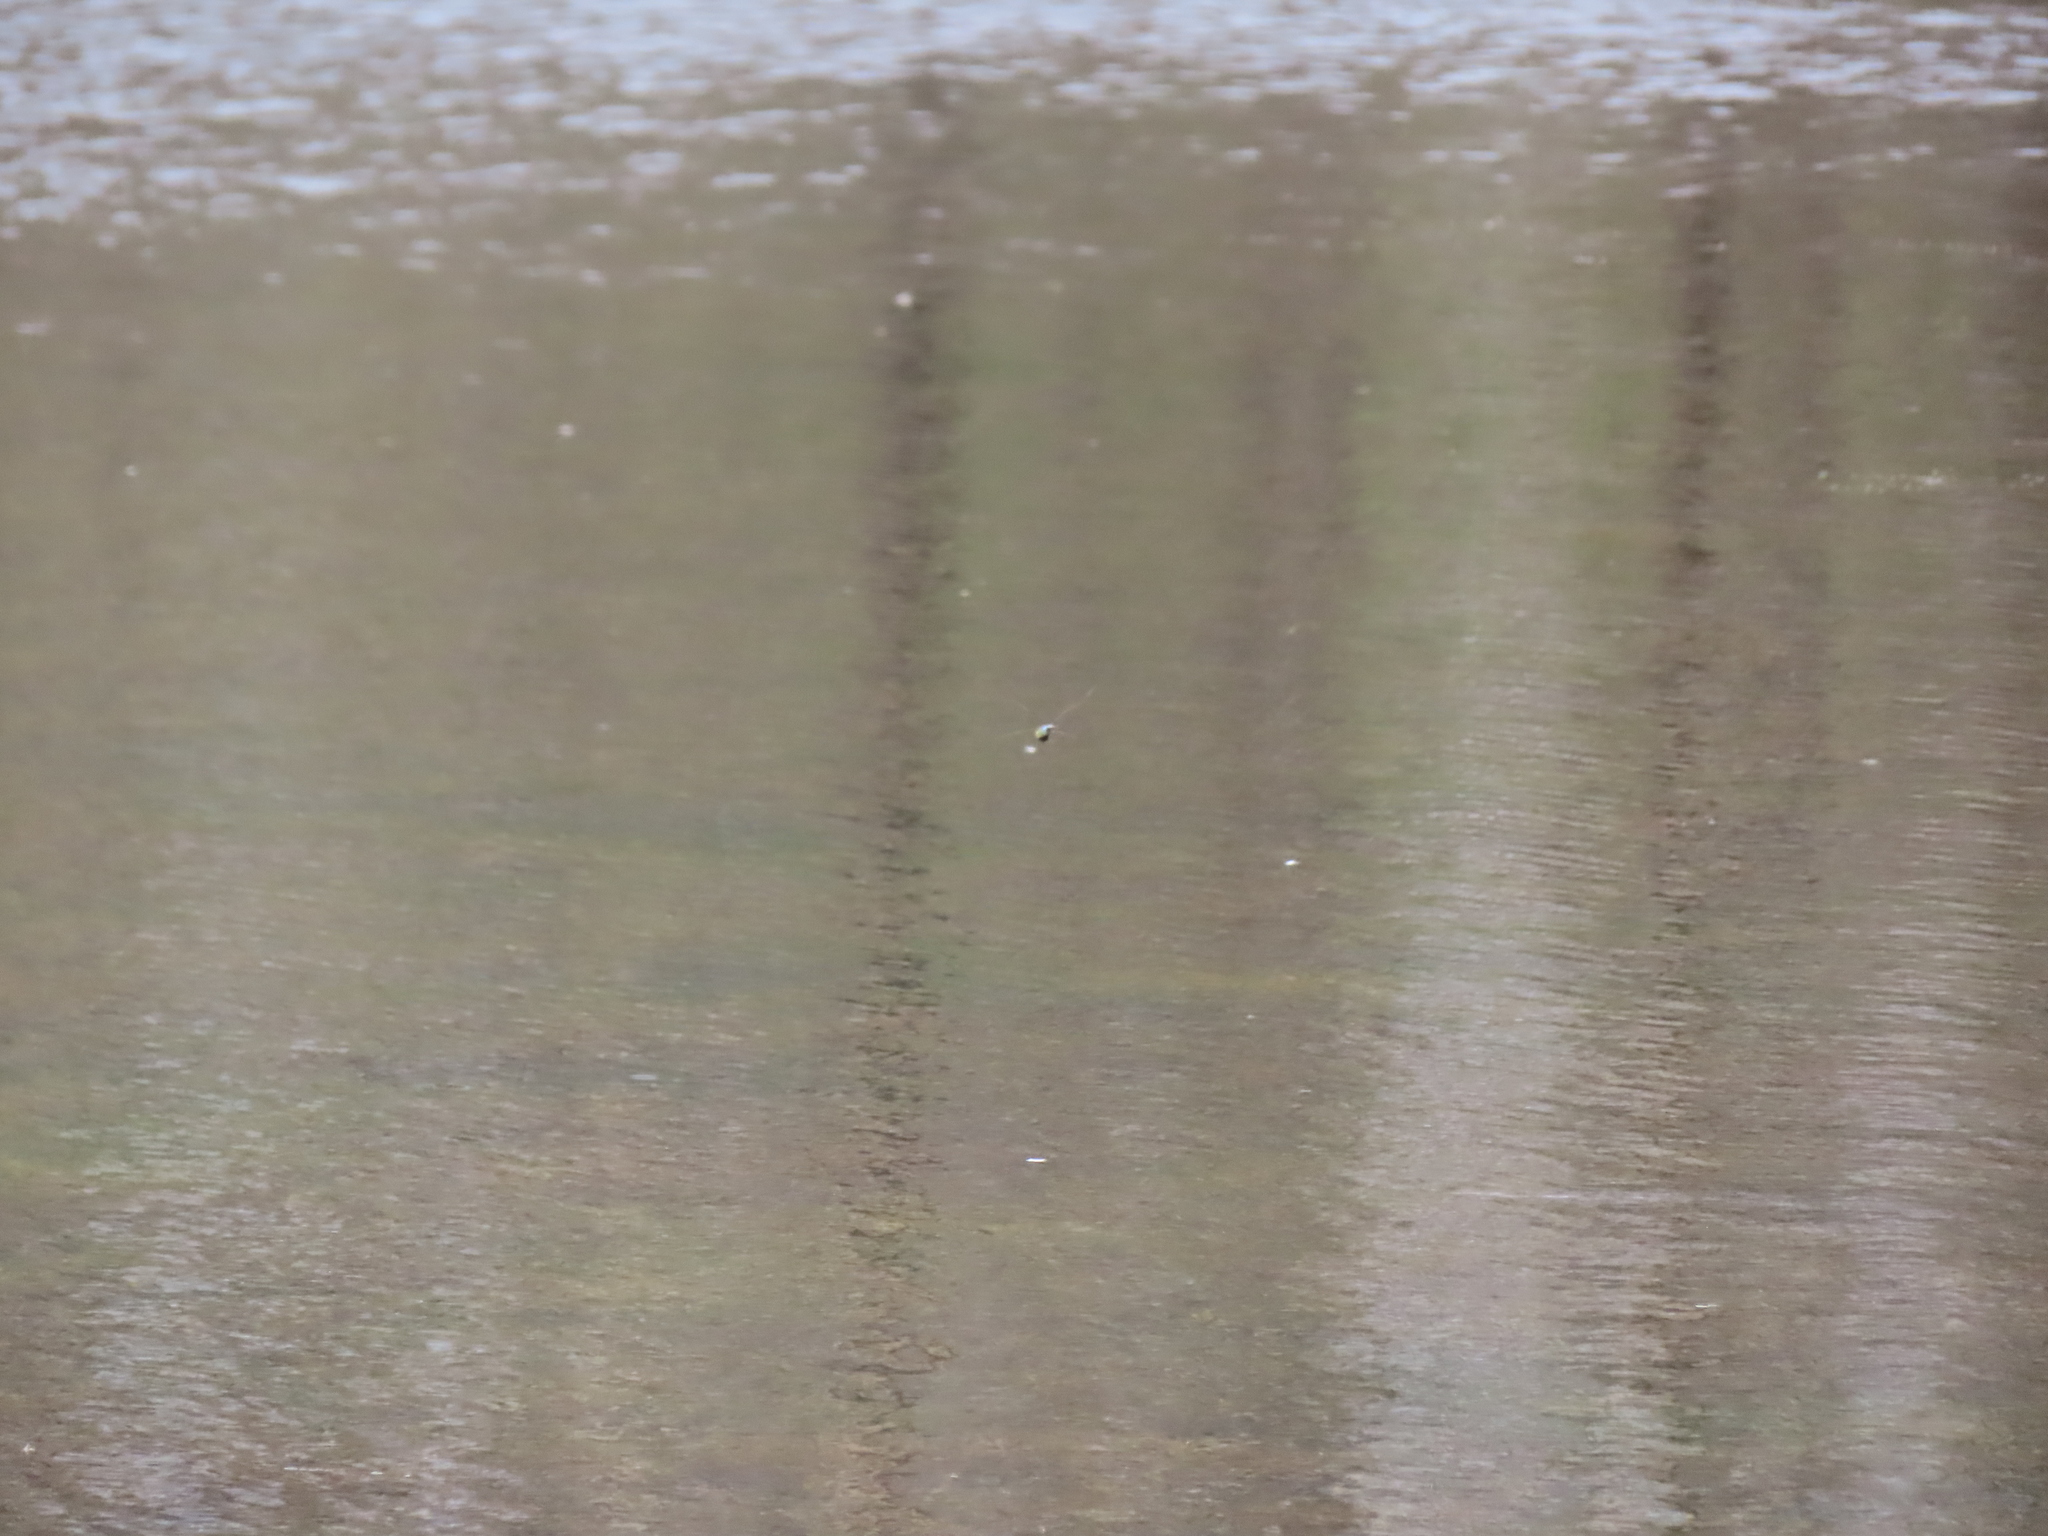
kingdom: Animalia
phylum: Arthropoda
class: Insecta
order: Odonata
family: Aeshnidae
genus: Anax
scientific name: Anax junius
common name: Common green darner
